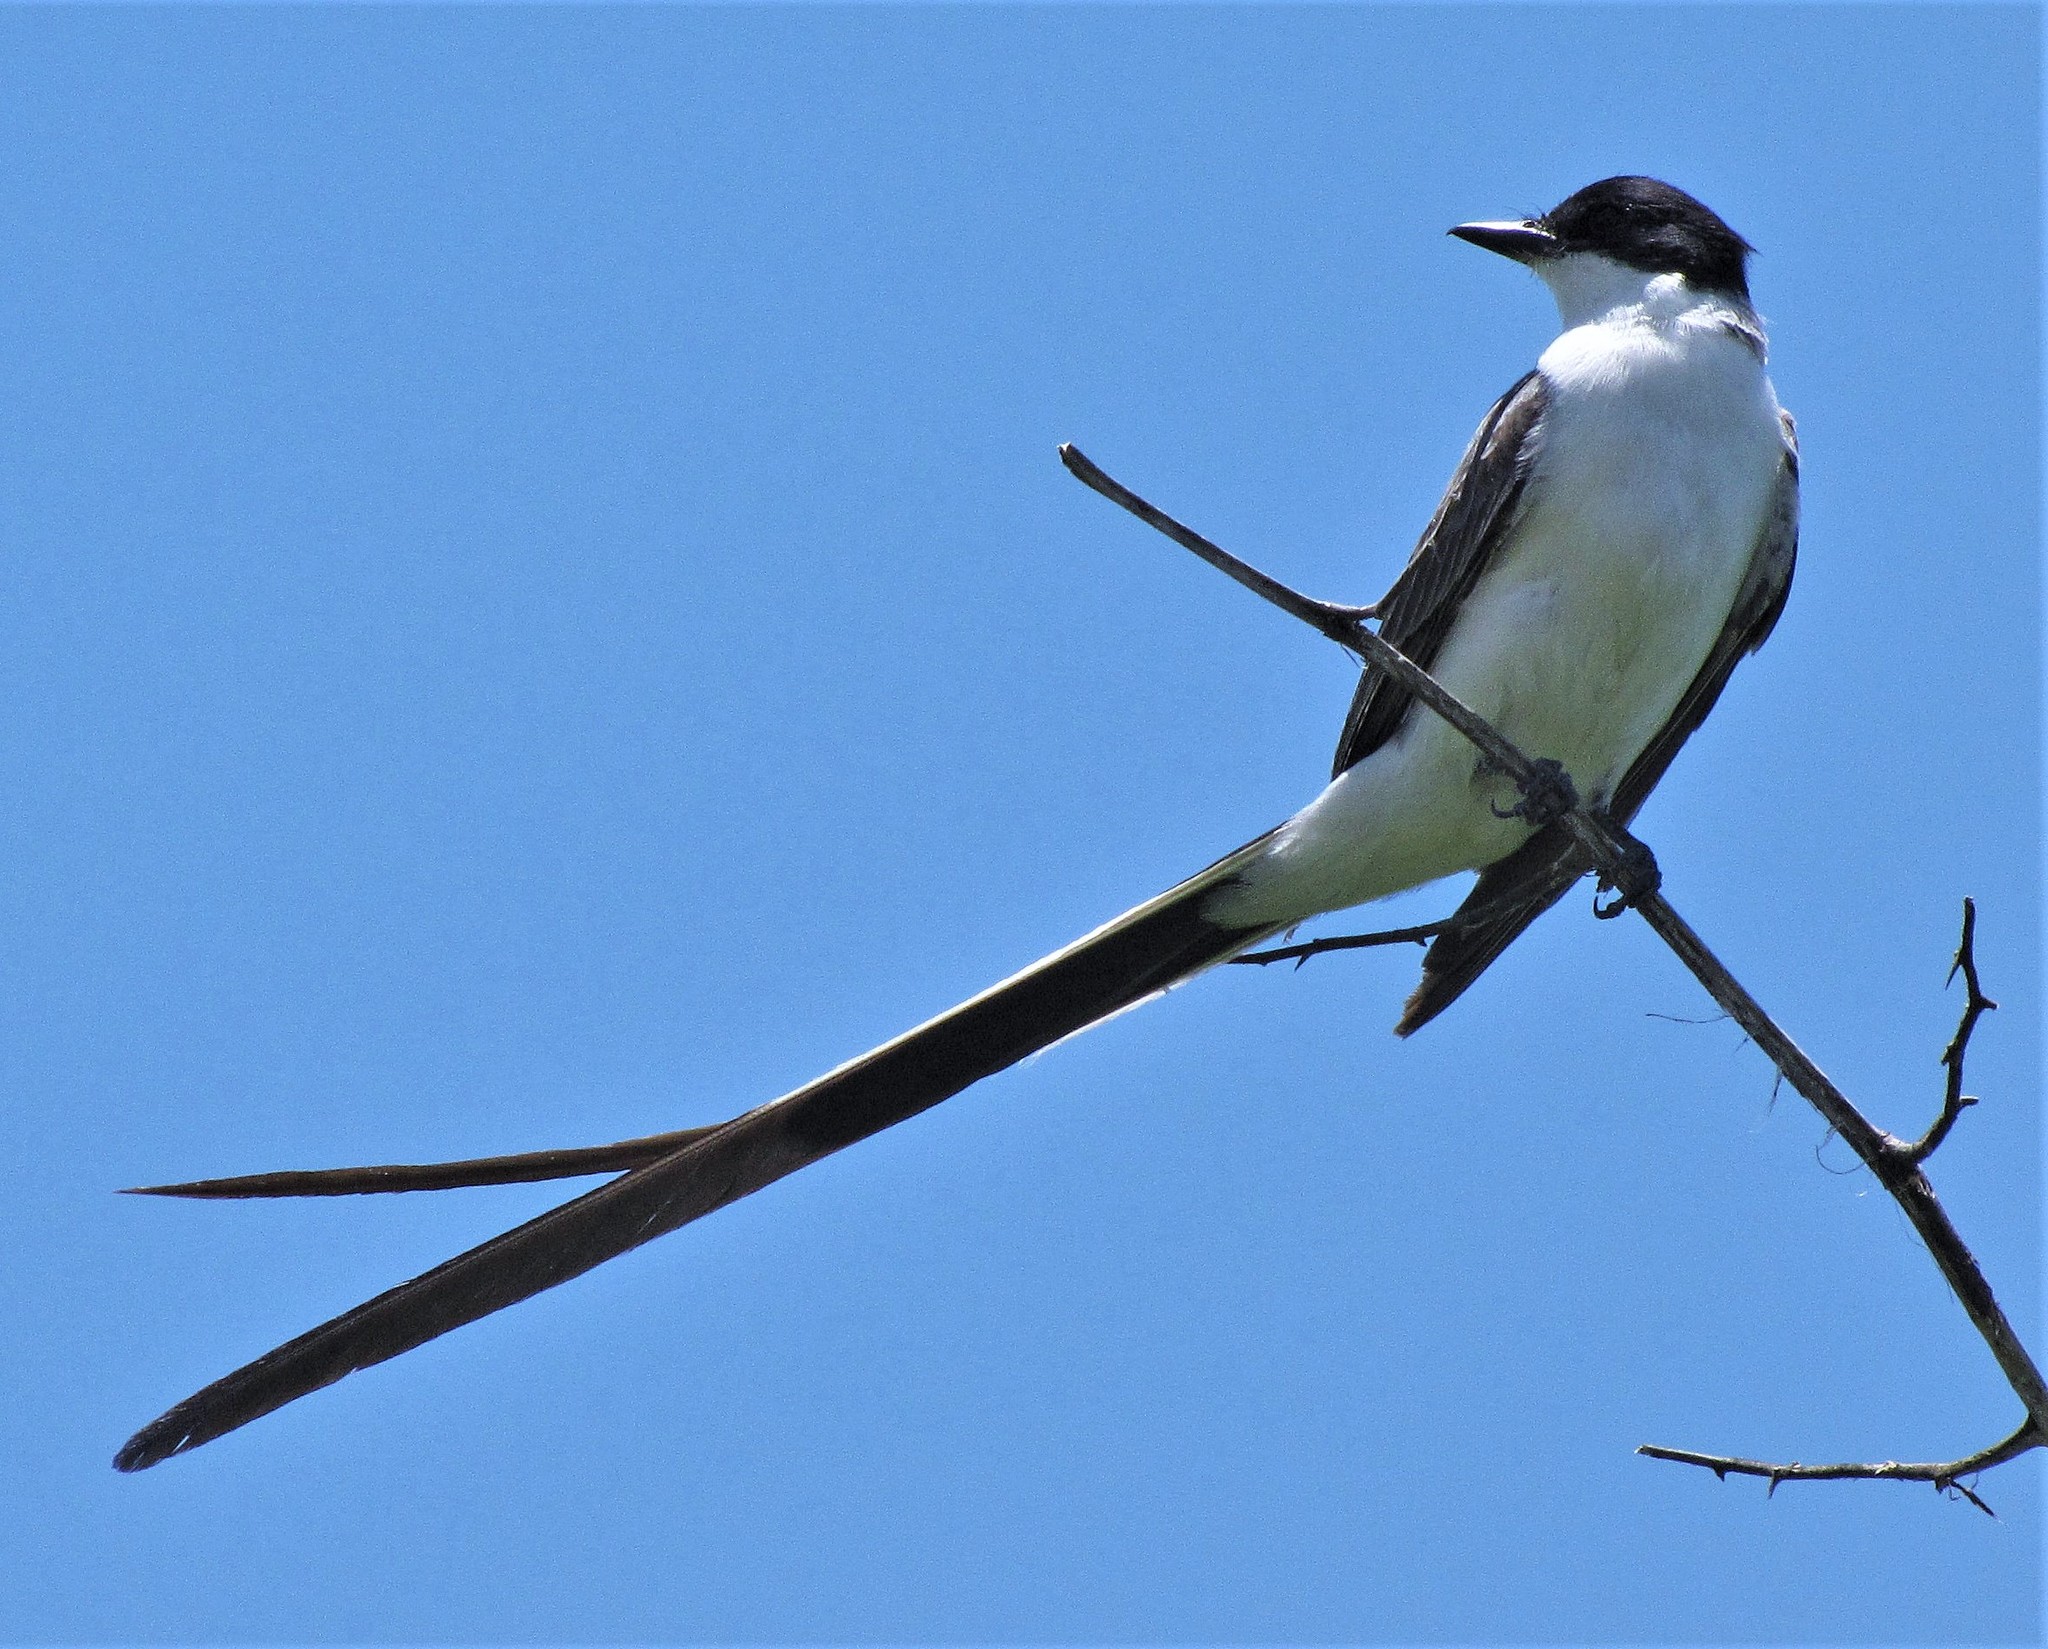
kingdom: Animalia
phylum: Chordata
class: Aves
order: Passeriformes
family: Tyrannidae
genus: Tyrannus
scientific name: Tyrannus savana
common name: Fork-tailed flycatcher
